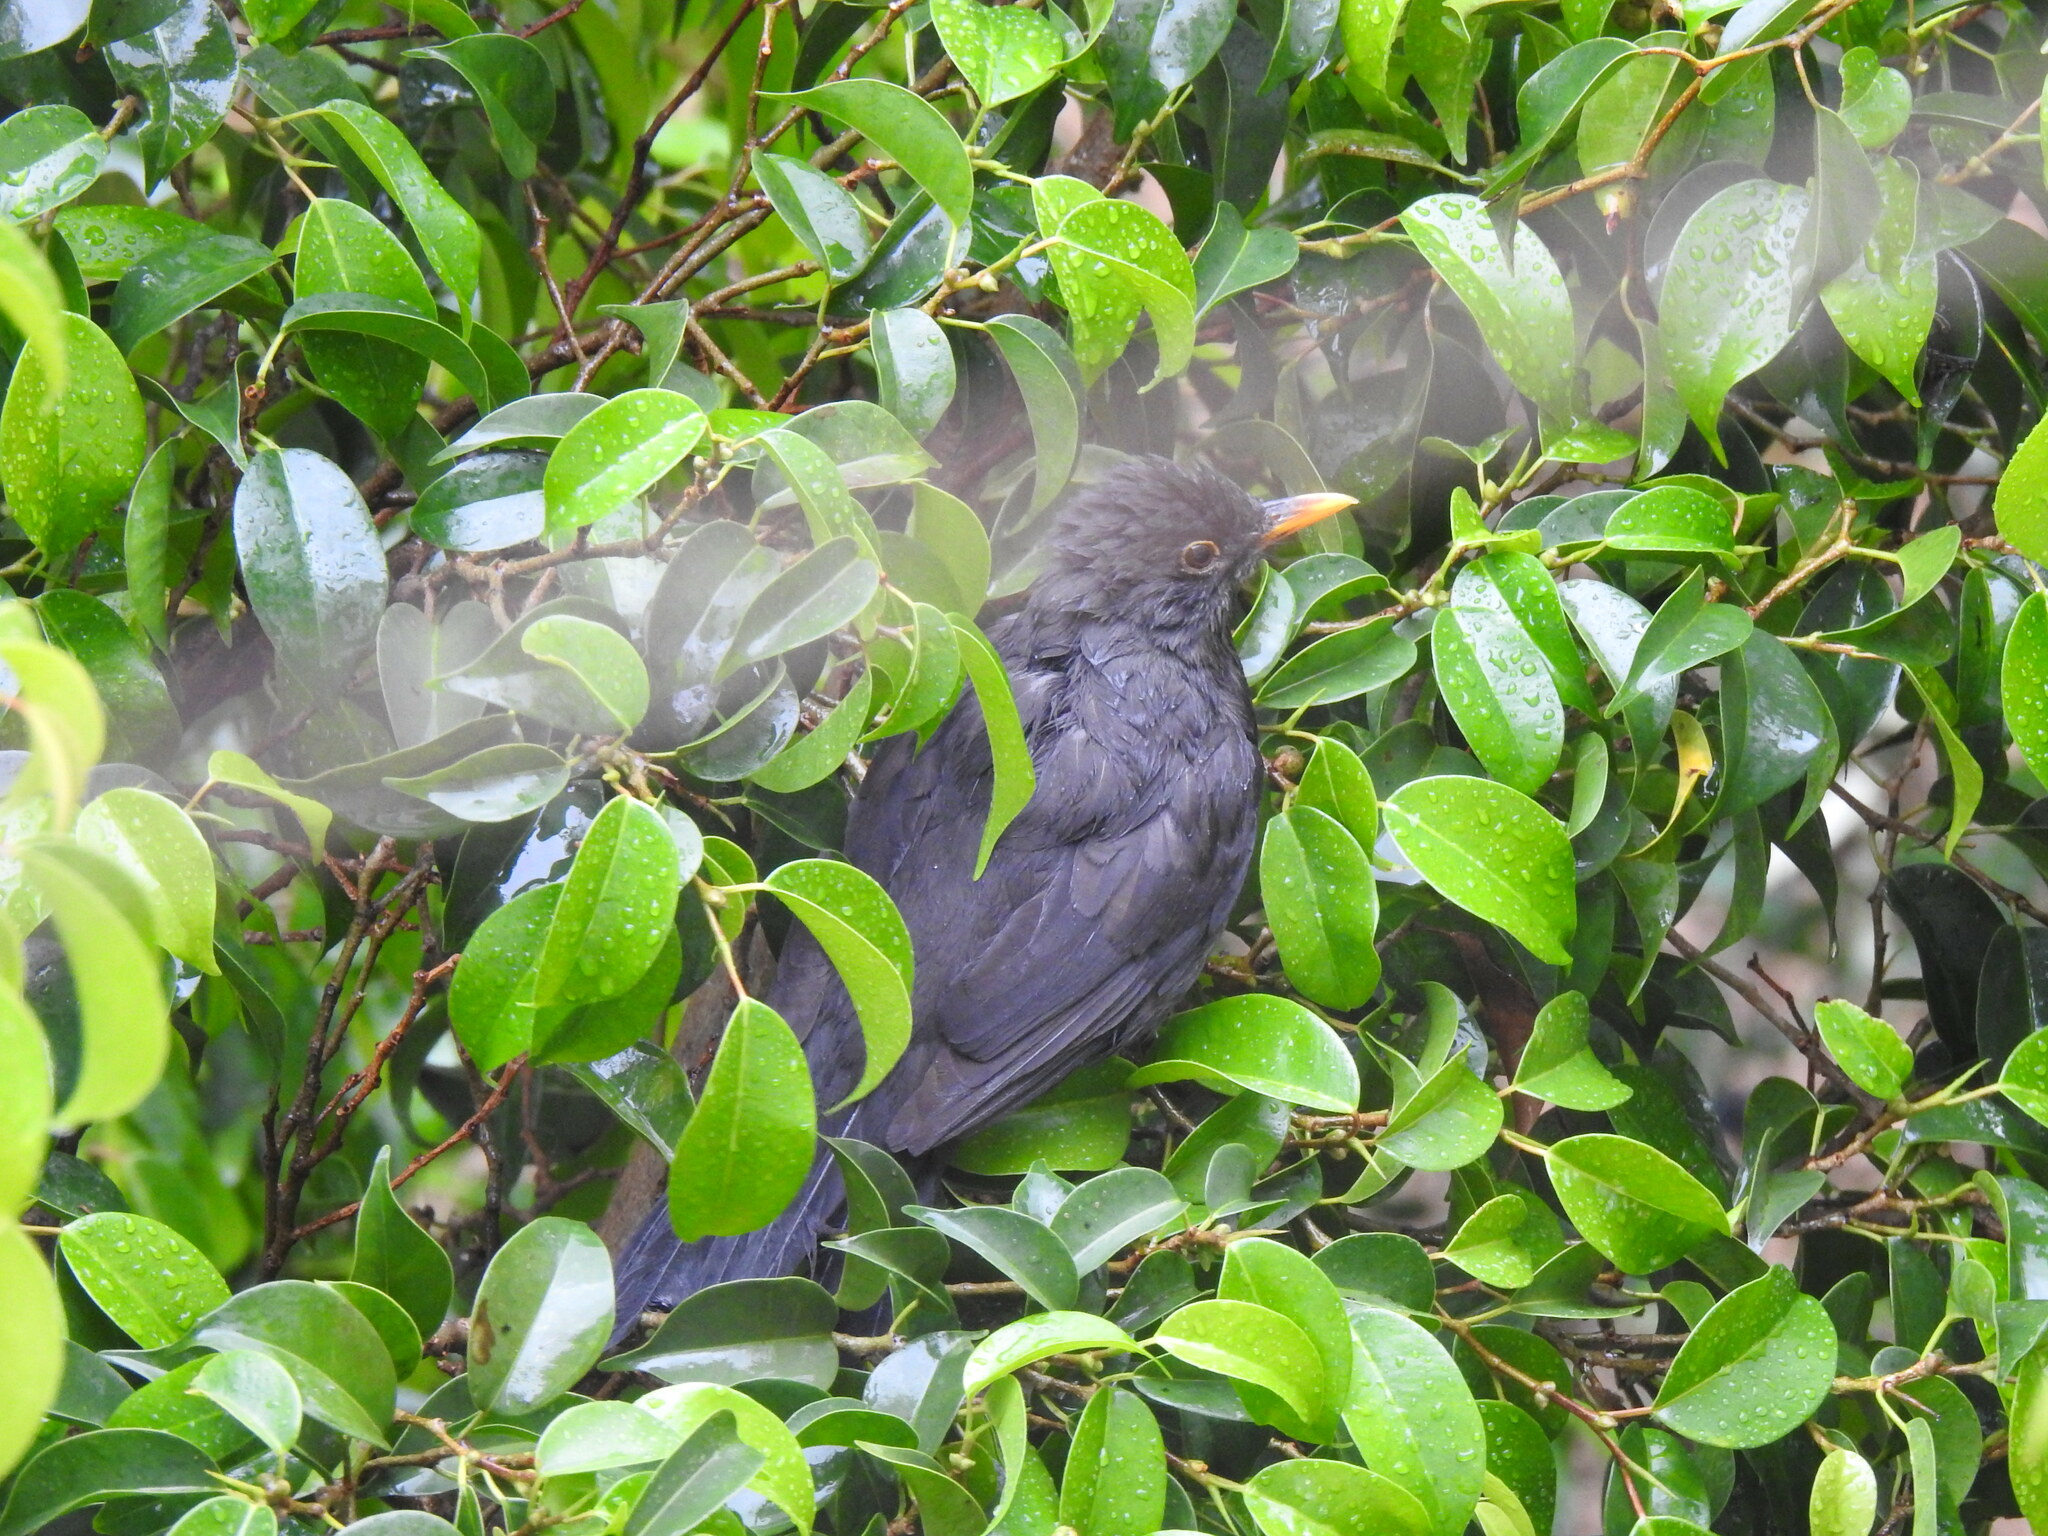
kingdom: Animalia
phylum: Chordata
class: Aves
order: Passeriformes
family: Turdidae
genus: Turdus
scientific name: Turdus merula
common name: Common blackbird
